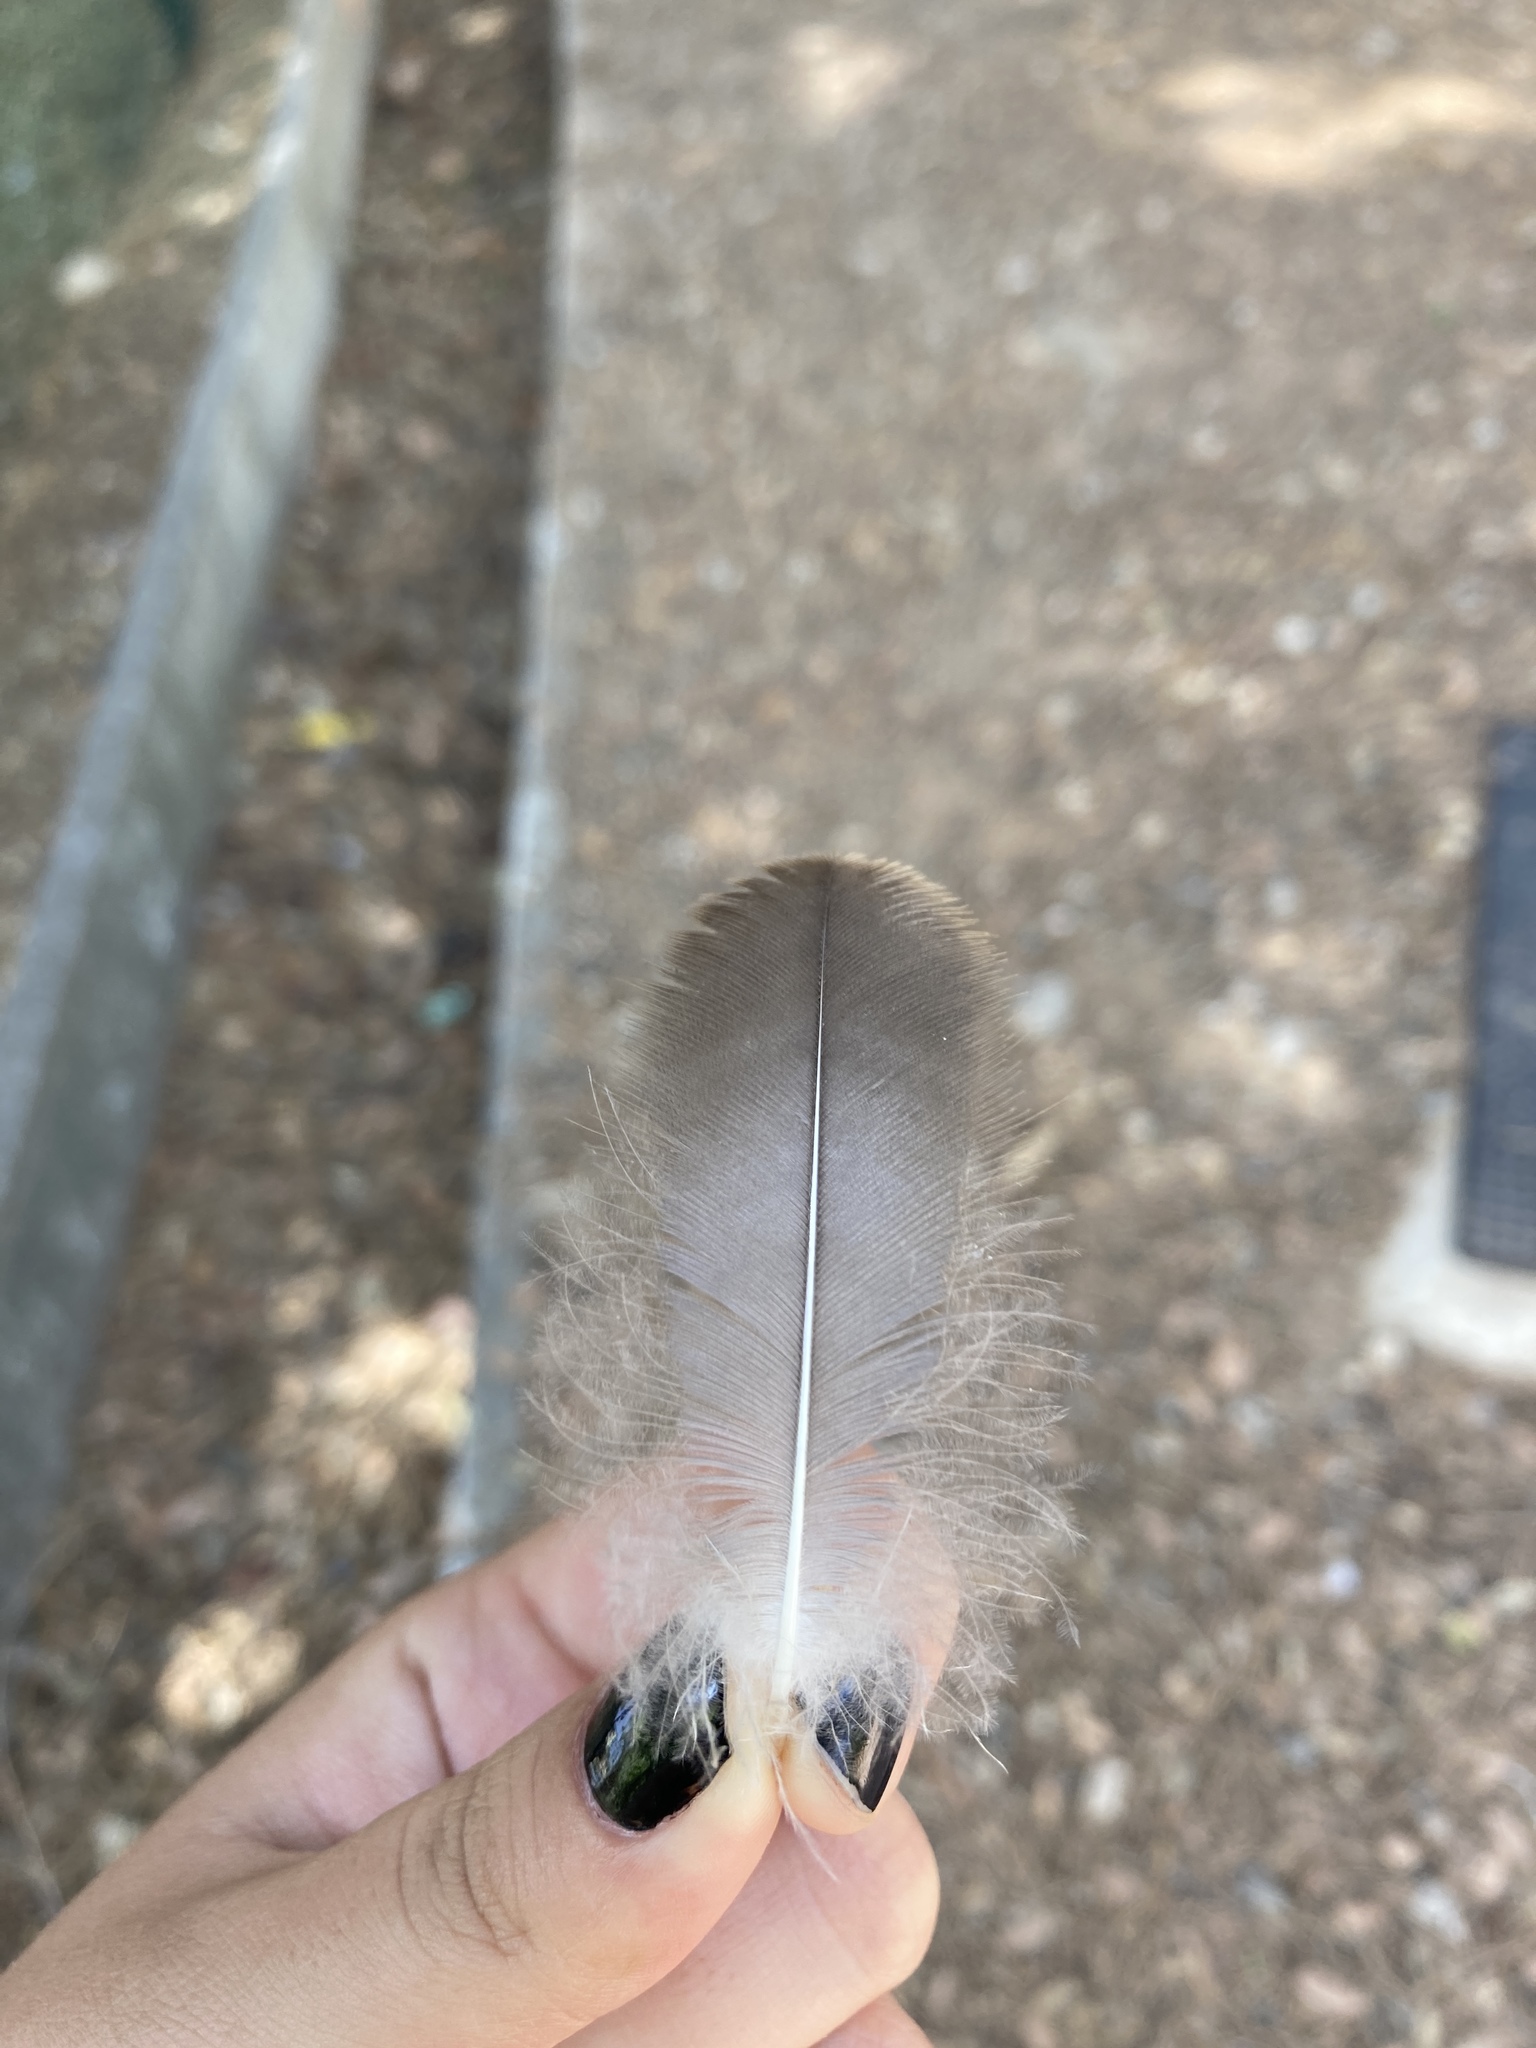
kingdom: Animalia
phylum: Chordata
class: Aves
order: Anseriformes
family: Anatidae
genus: Anser
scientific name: Anser anser
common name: Greylag goose
